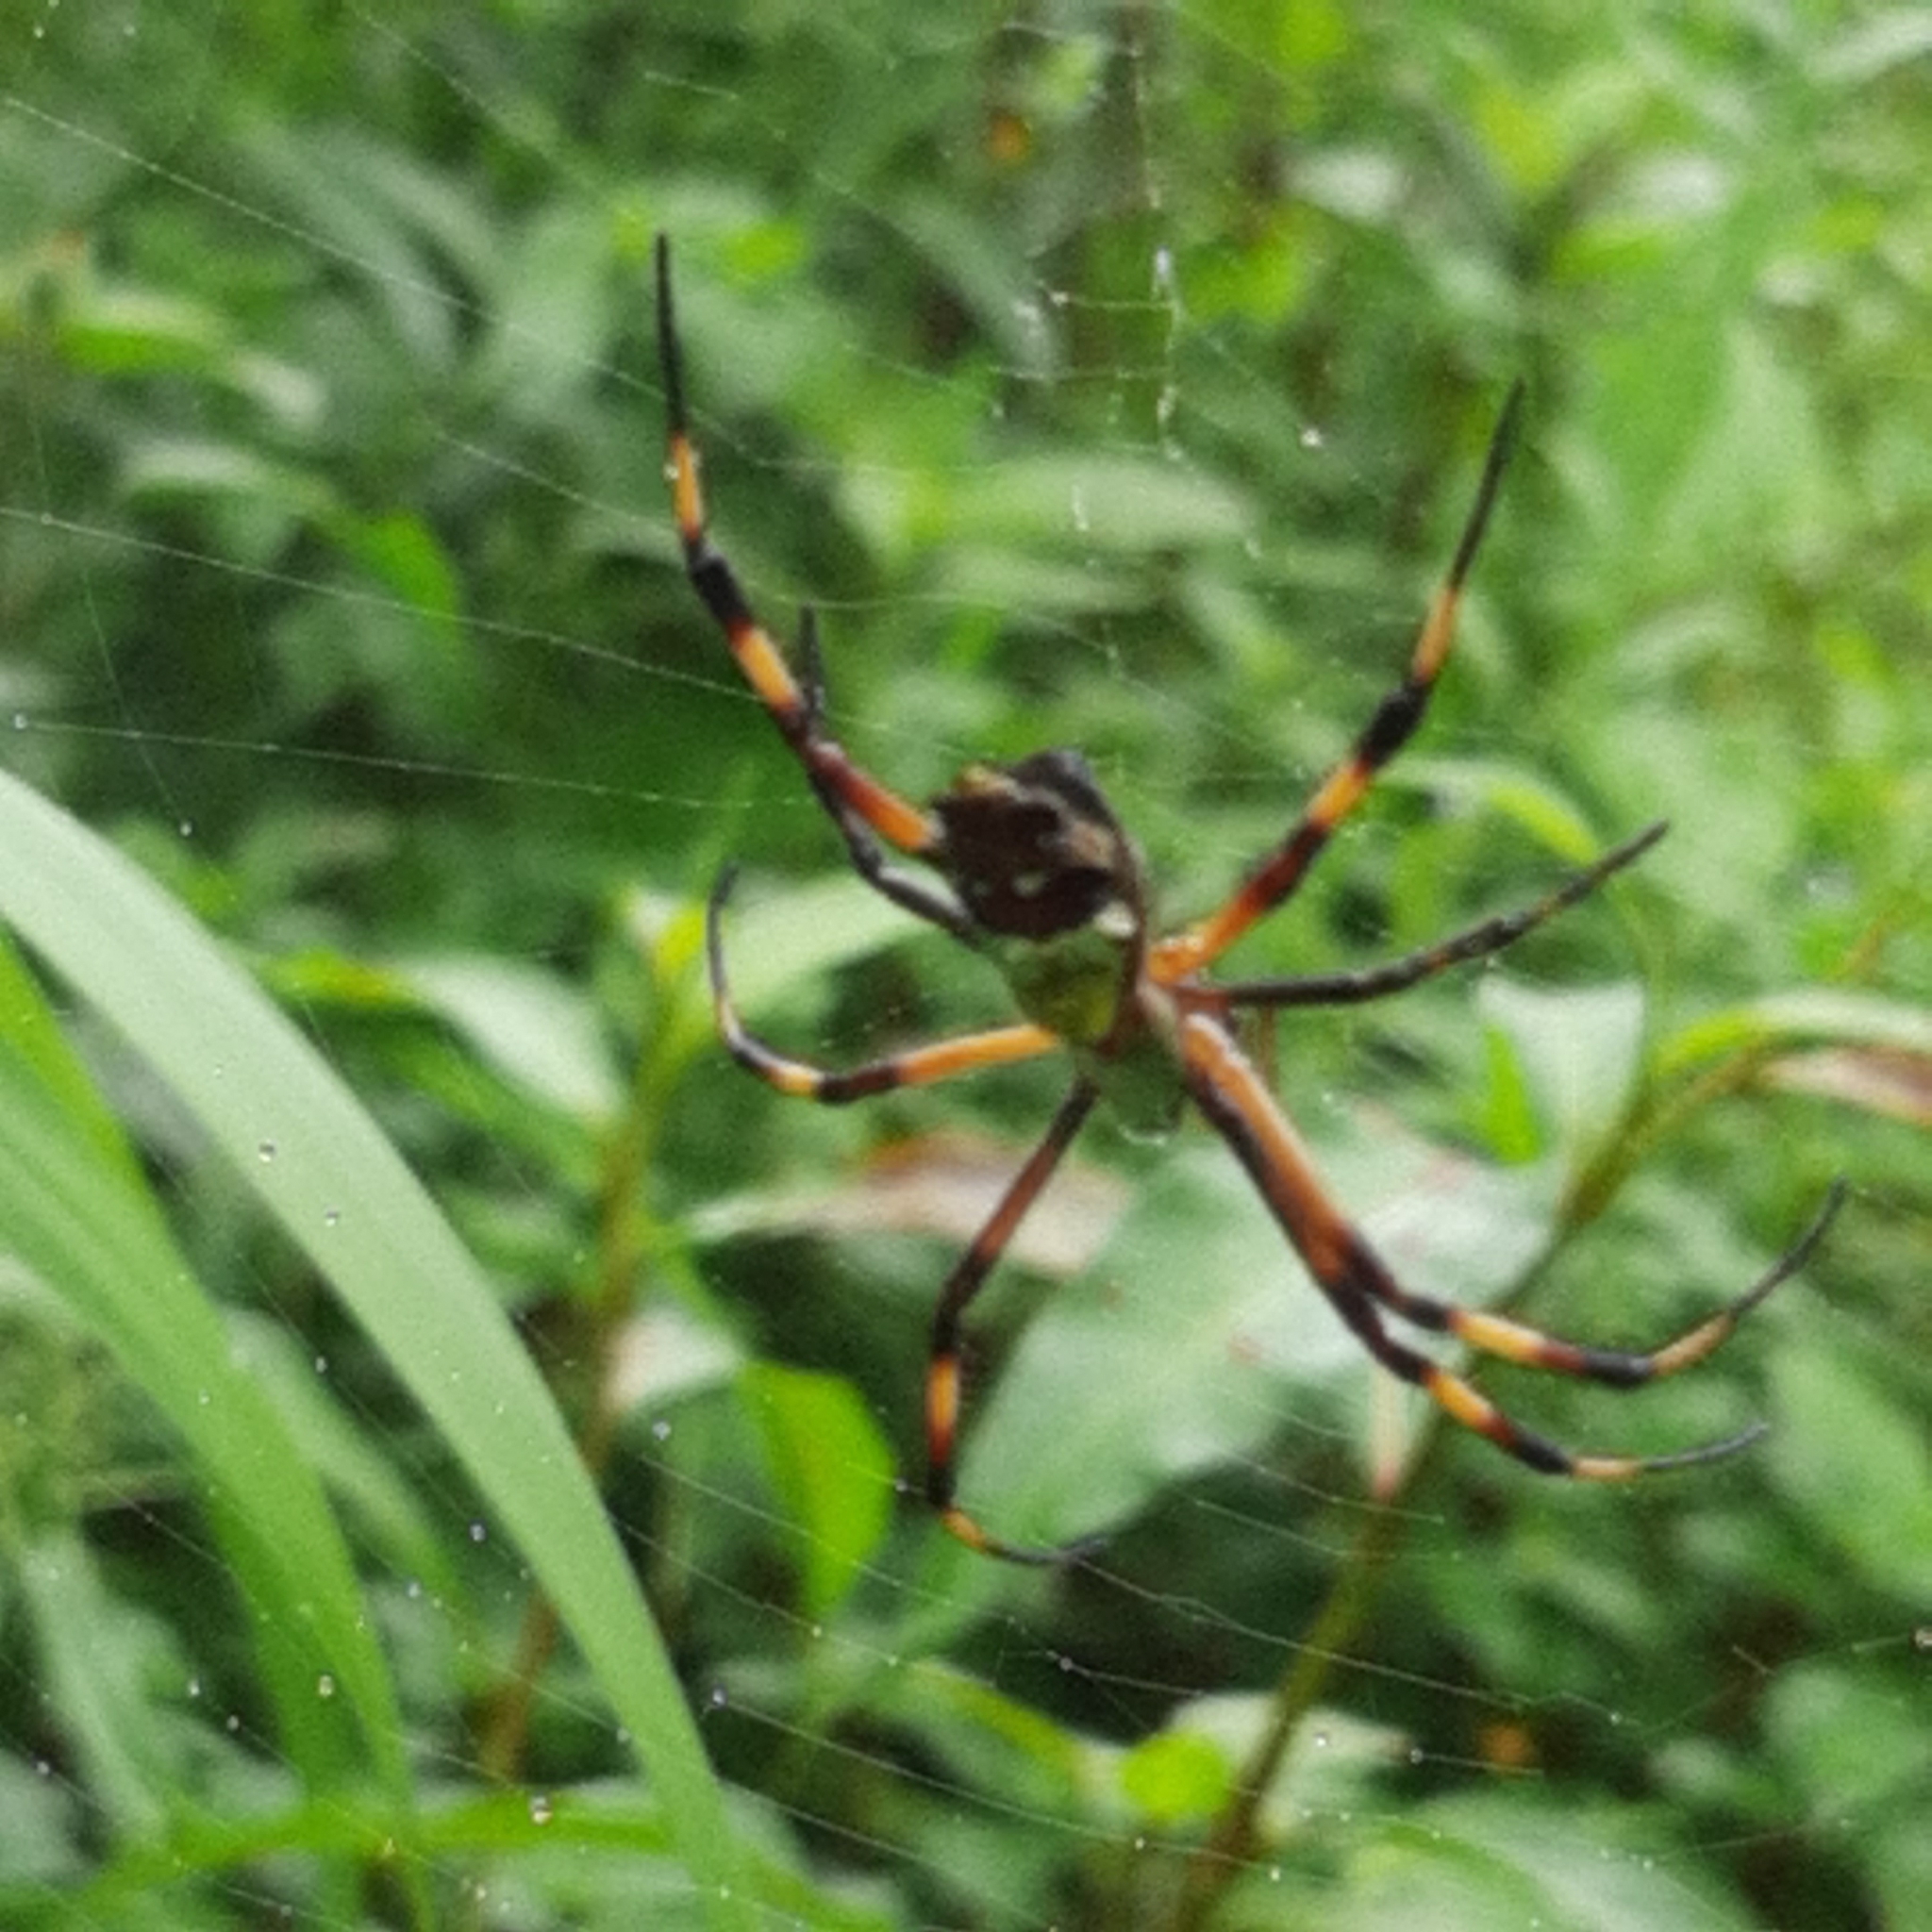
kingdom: Animalia
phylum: Arthropoda
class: Arachnida
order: Araneae
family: Araneidae
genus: Argiope
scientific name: Argiope argentata
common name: Orb weavers
